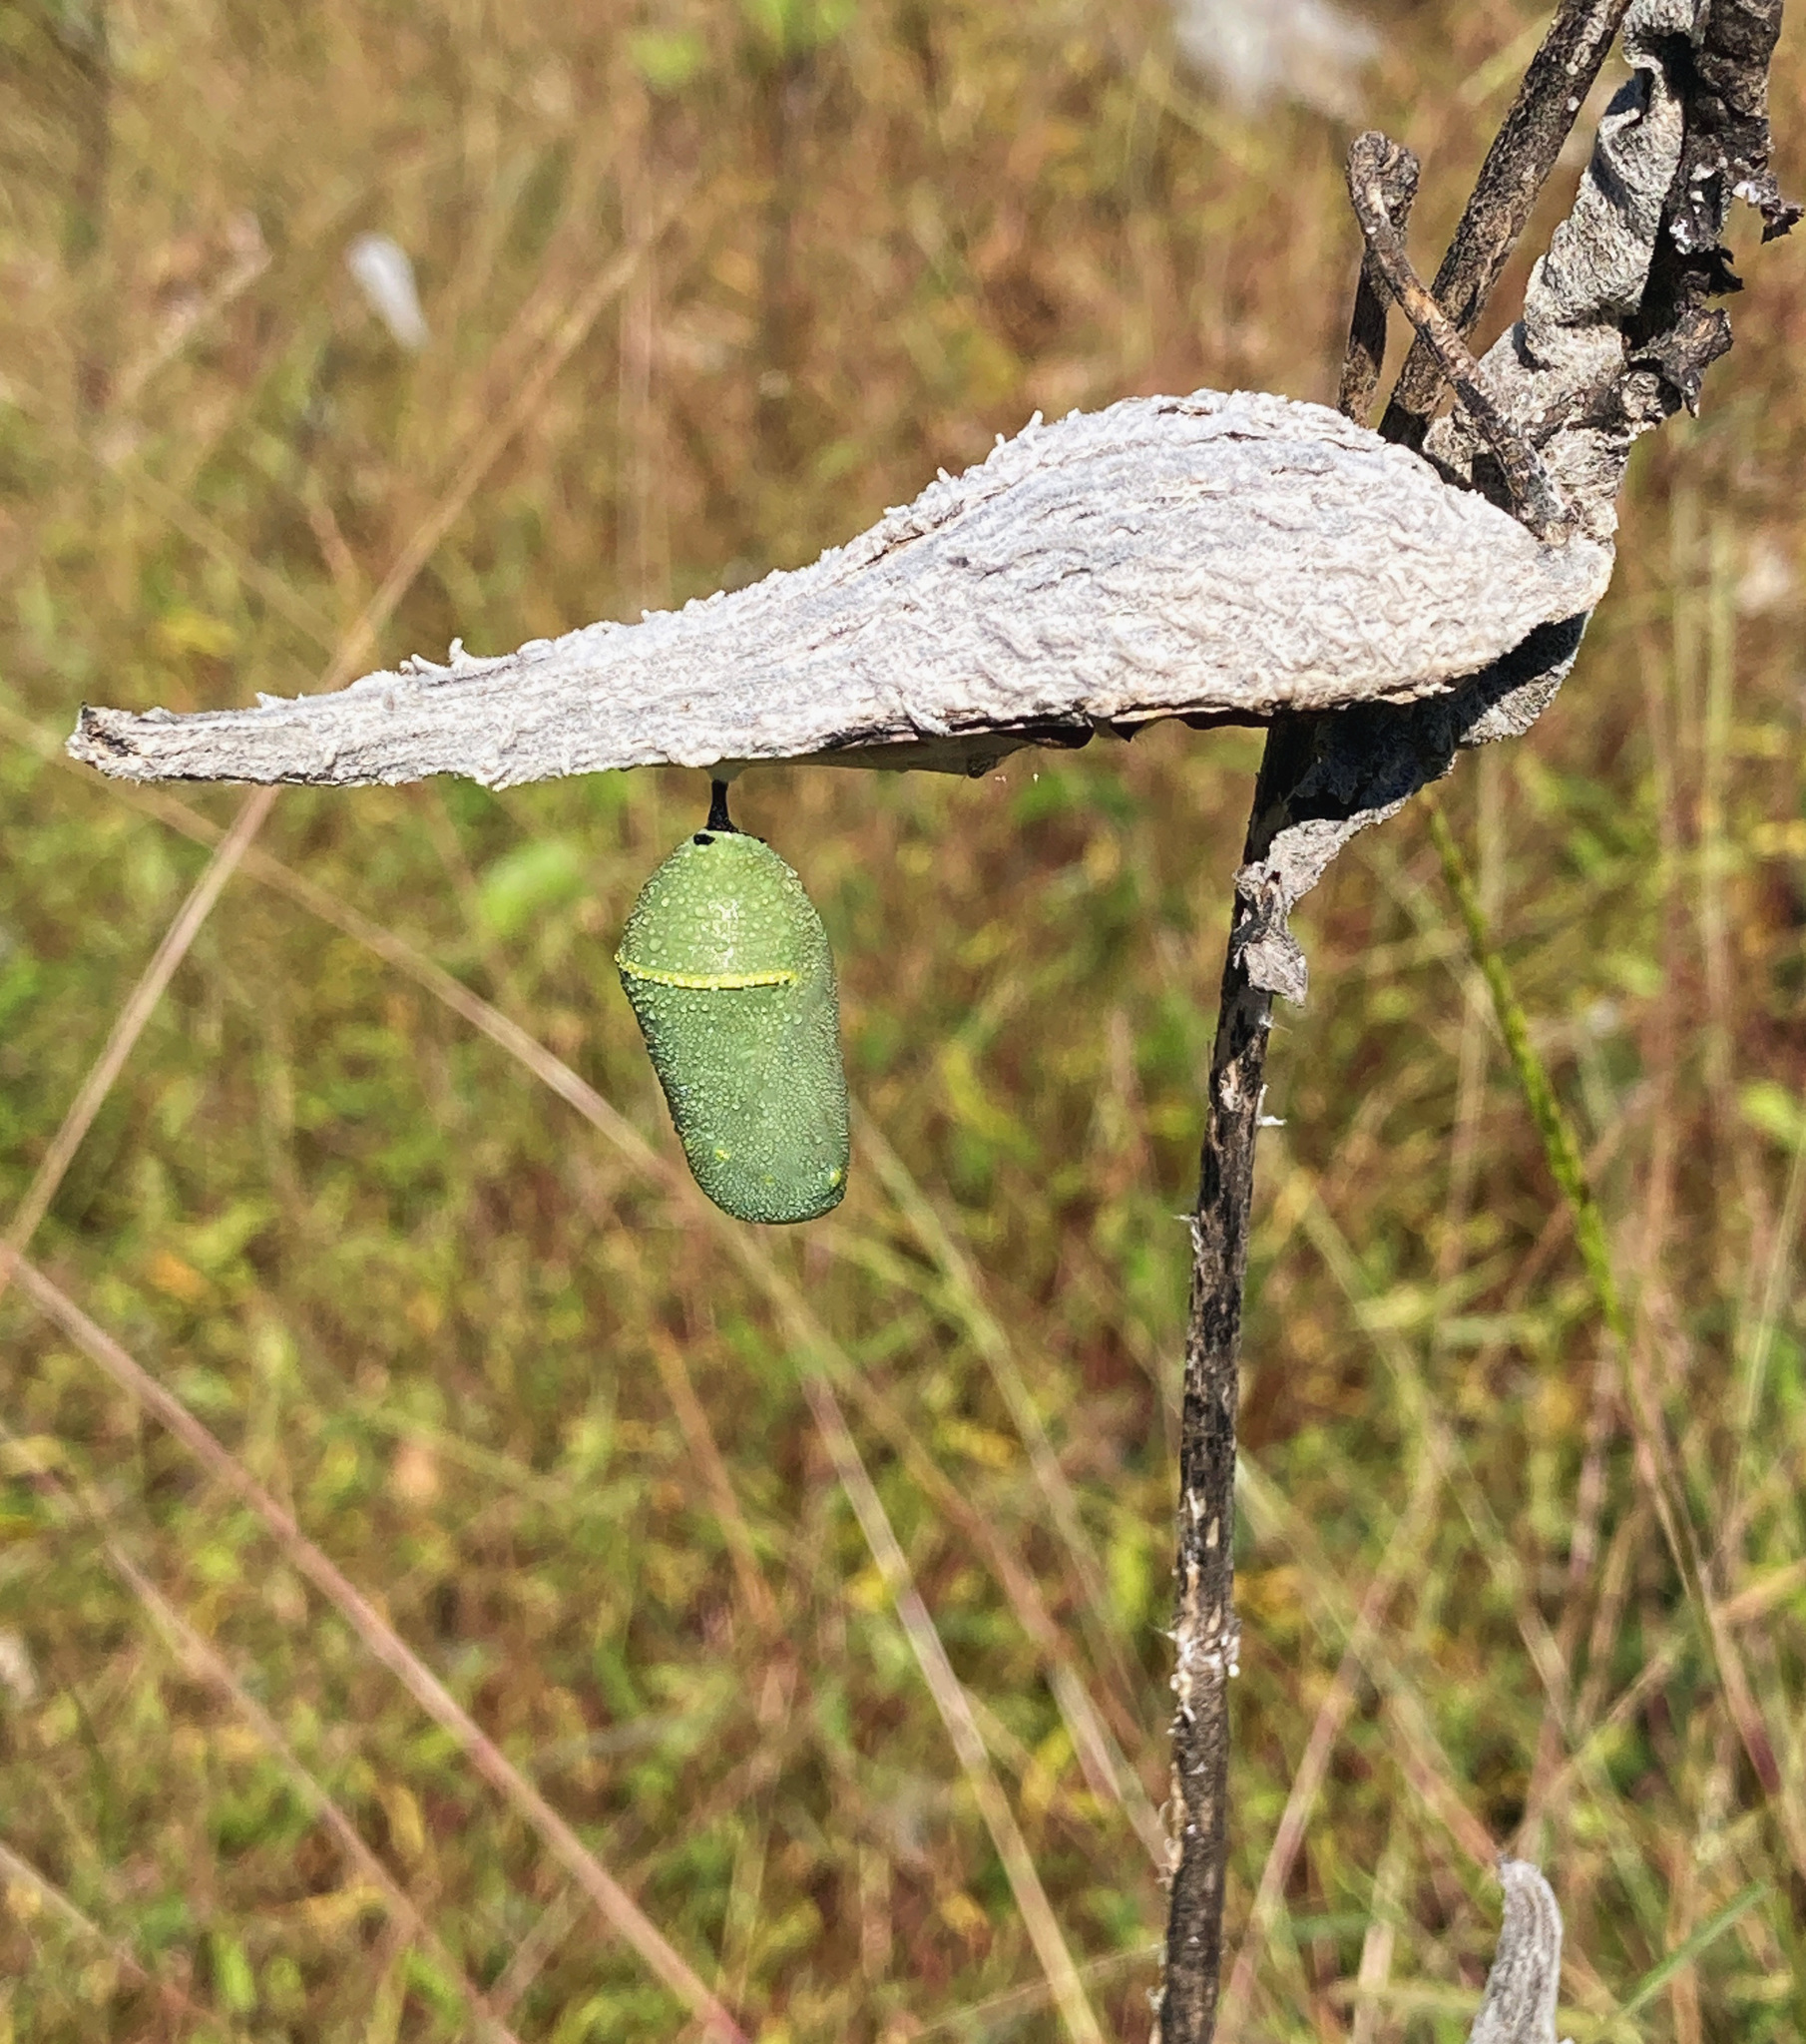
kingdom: Animalia
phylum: Arthropoda
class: Insecta
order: Lepidoptera
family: Nymphalidae
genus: Danaus
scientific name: Danaus plexippus
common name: Monarch
